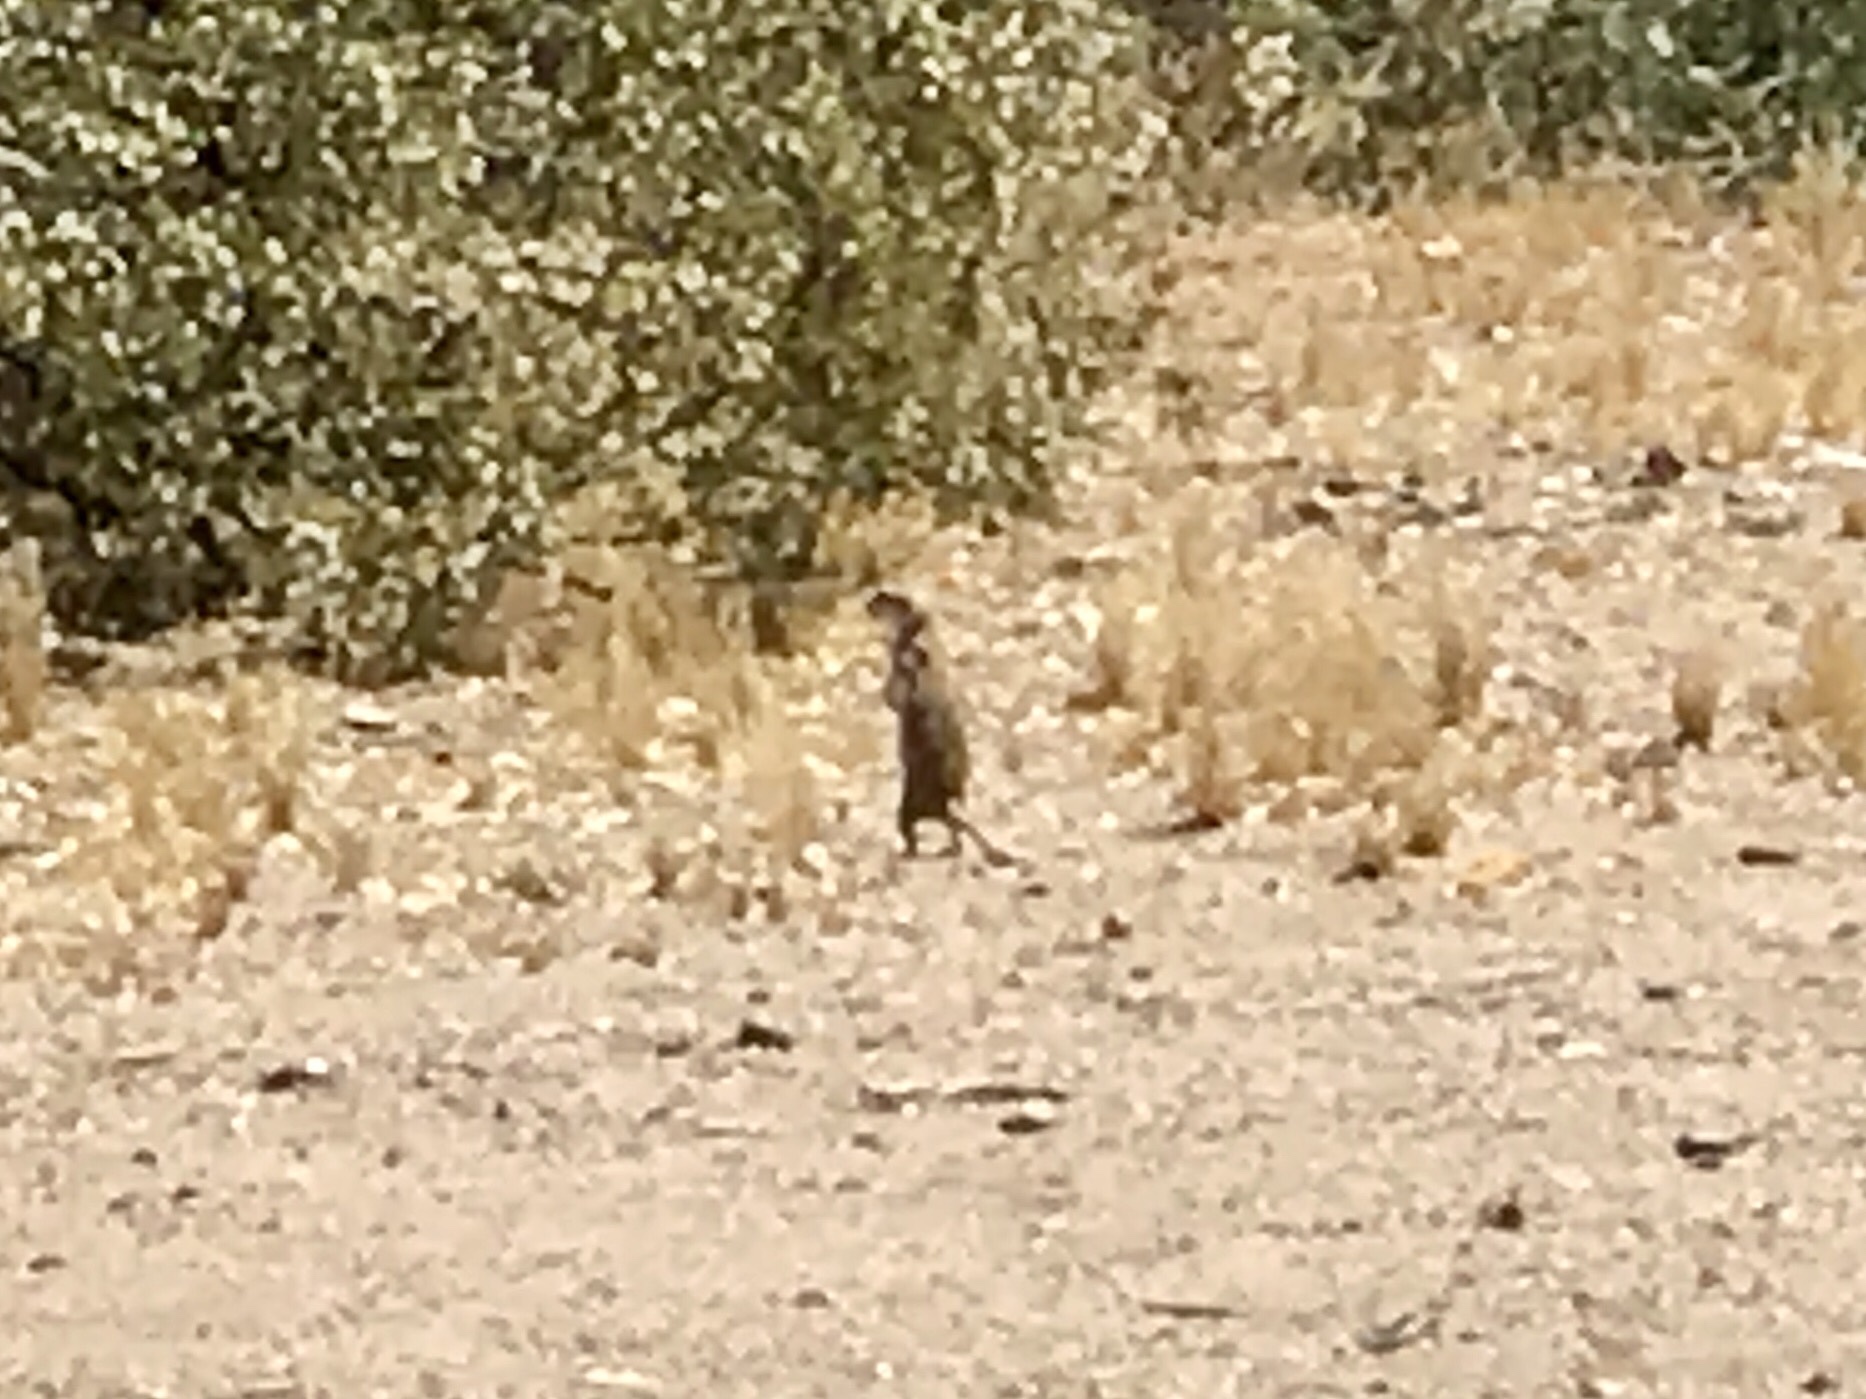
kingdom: Animalia
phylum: Chordata
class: Mammalia
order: Rodentia
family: Sciuridae
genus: Xerospermophilus
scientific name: Xerospermophilus tereticaudus
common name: Round-tailed ground squirrel
